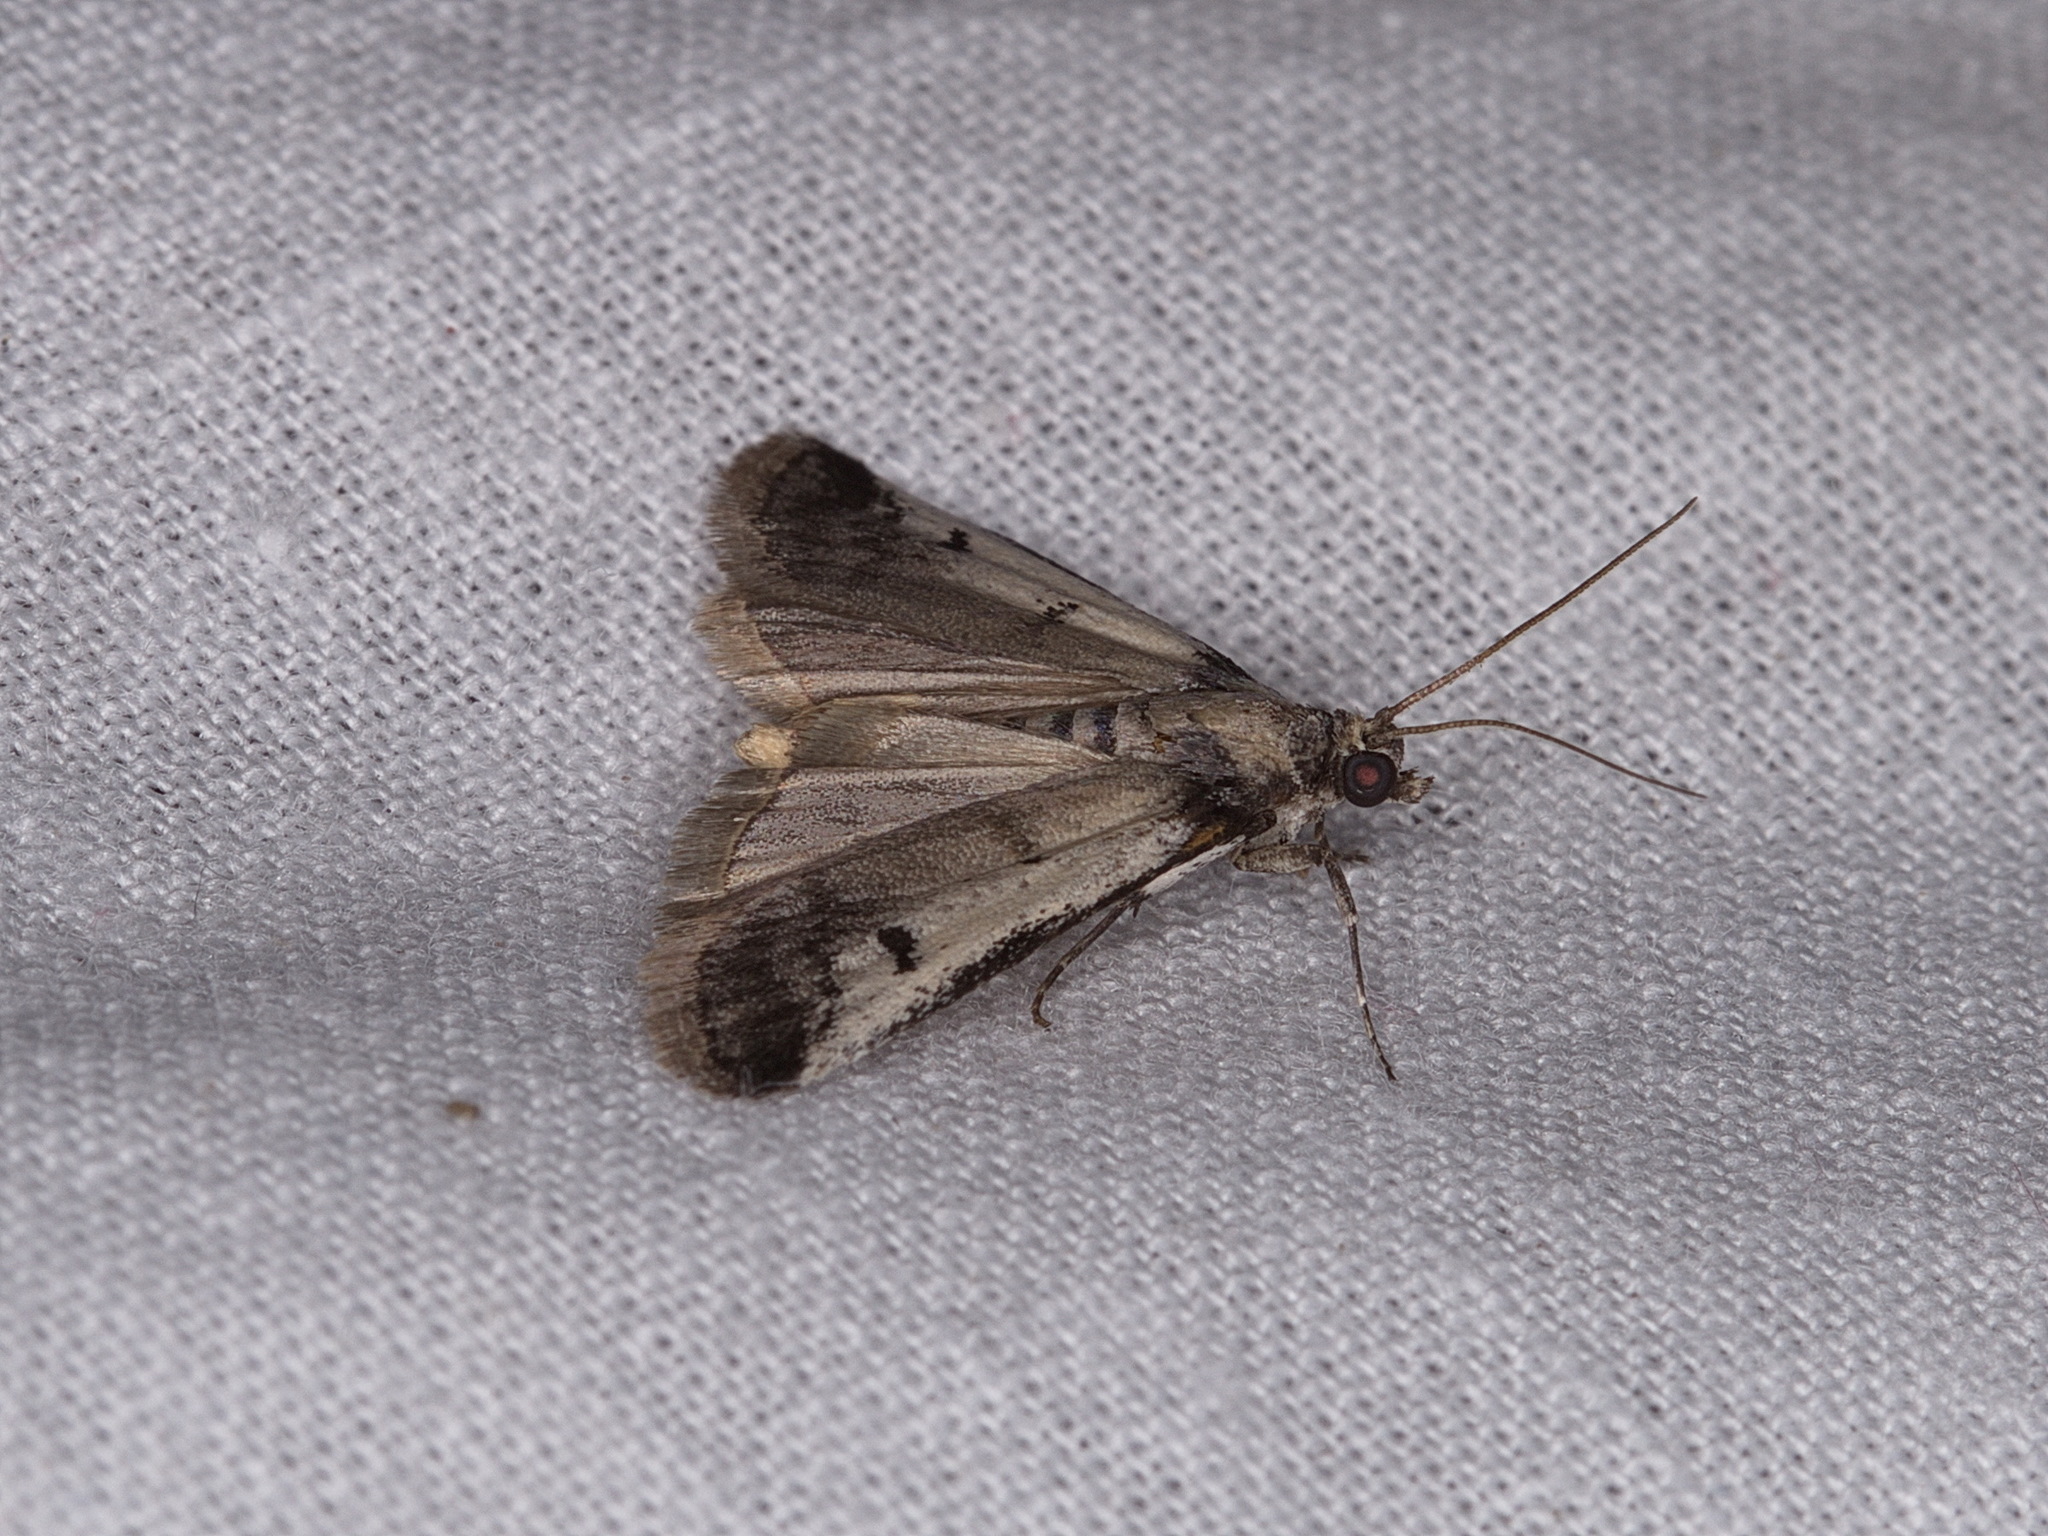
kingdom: Animalia
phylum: Arthropoda
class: Insecta
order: Lepidoptera
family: Pyralidae
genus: Creobota
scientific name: Creobota grossipunctella
